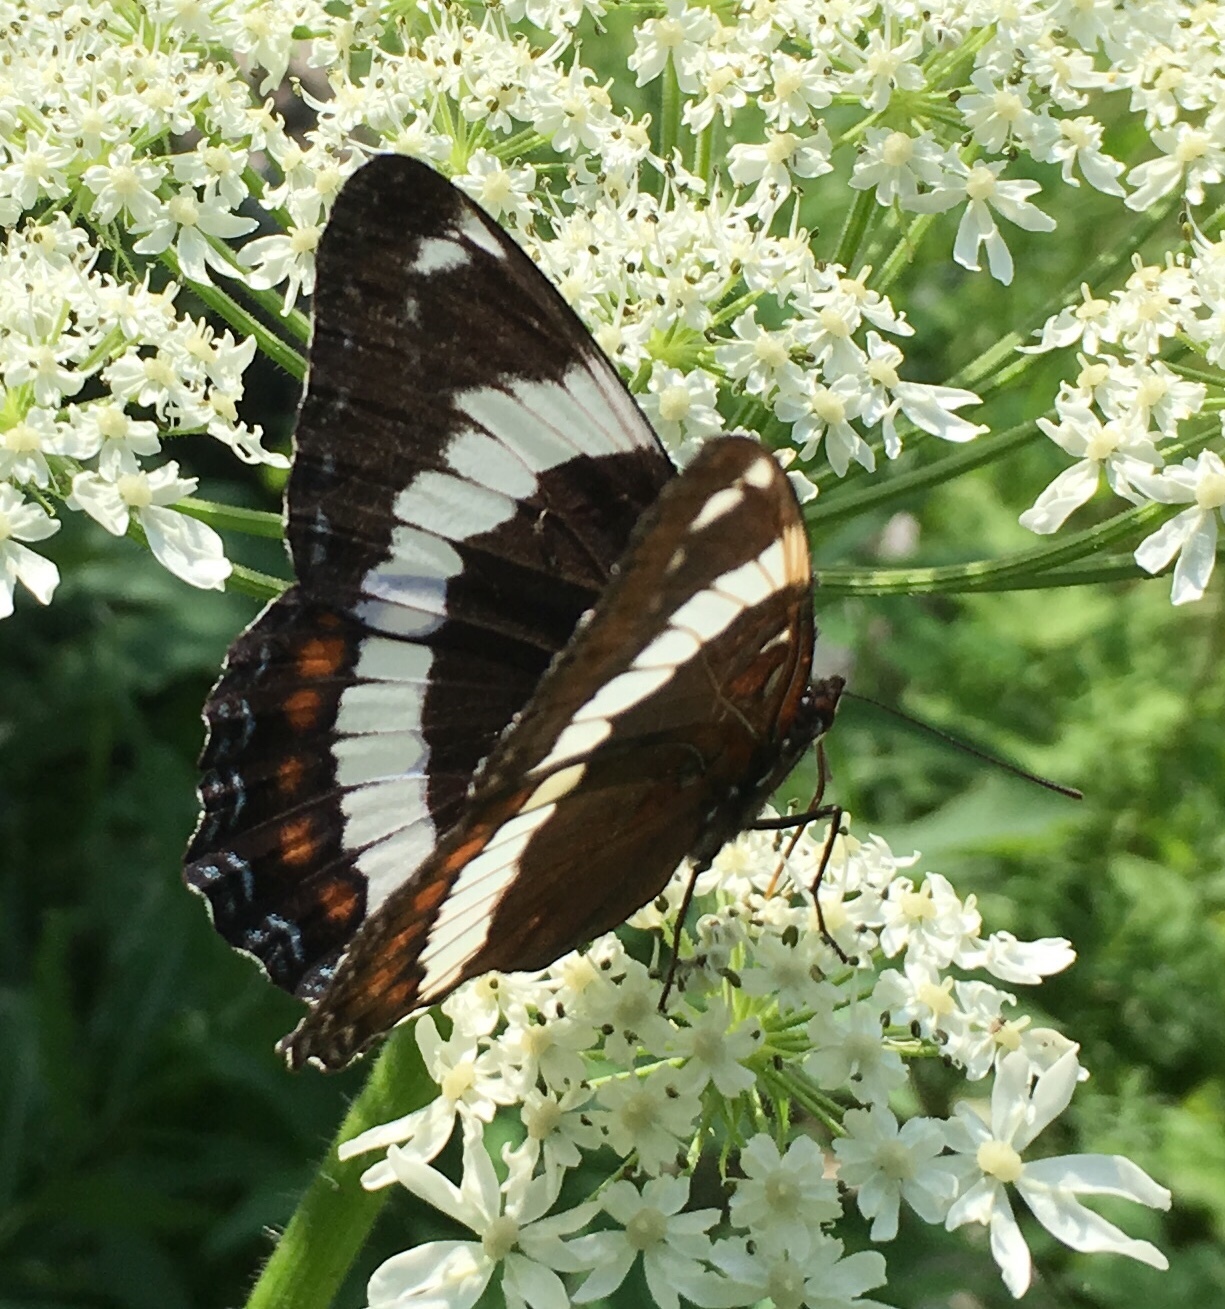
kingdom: Animalia
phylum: Arthropoda
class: Insecta
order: Lepidoptera
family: Nymphalidae
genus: Limenitis
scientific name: Limenitis arthemis
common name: Red-spotted admiral
